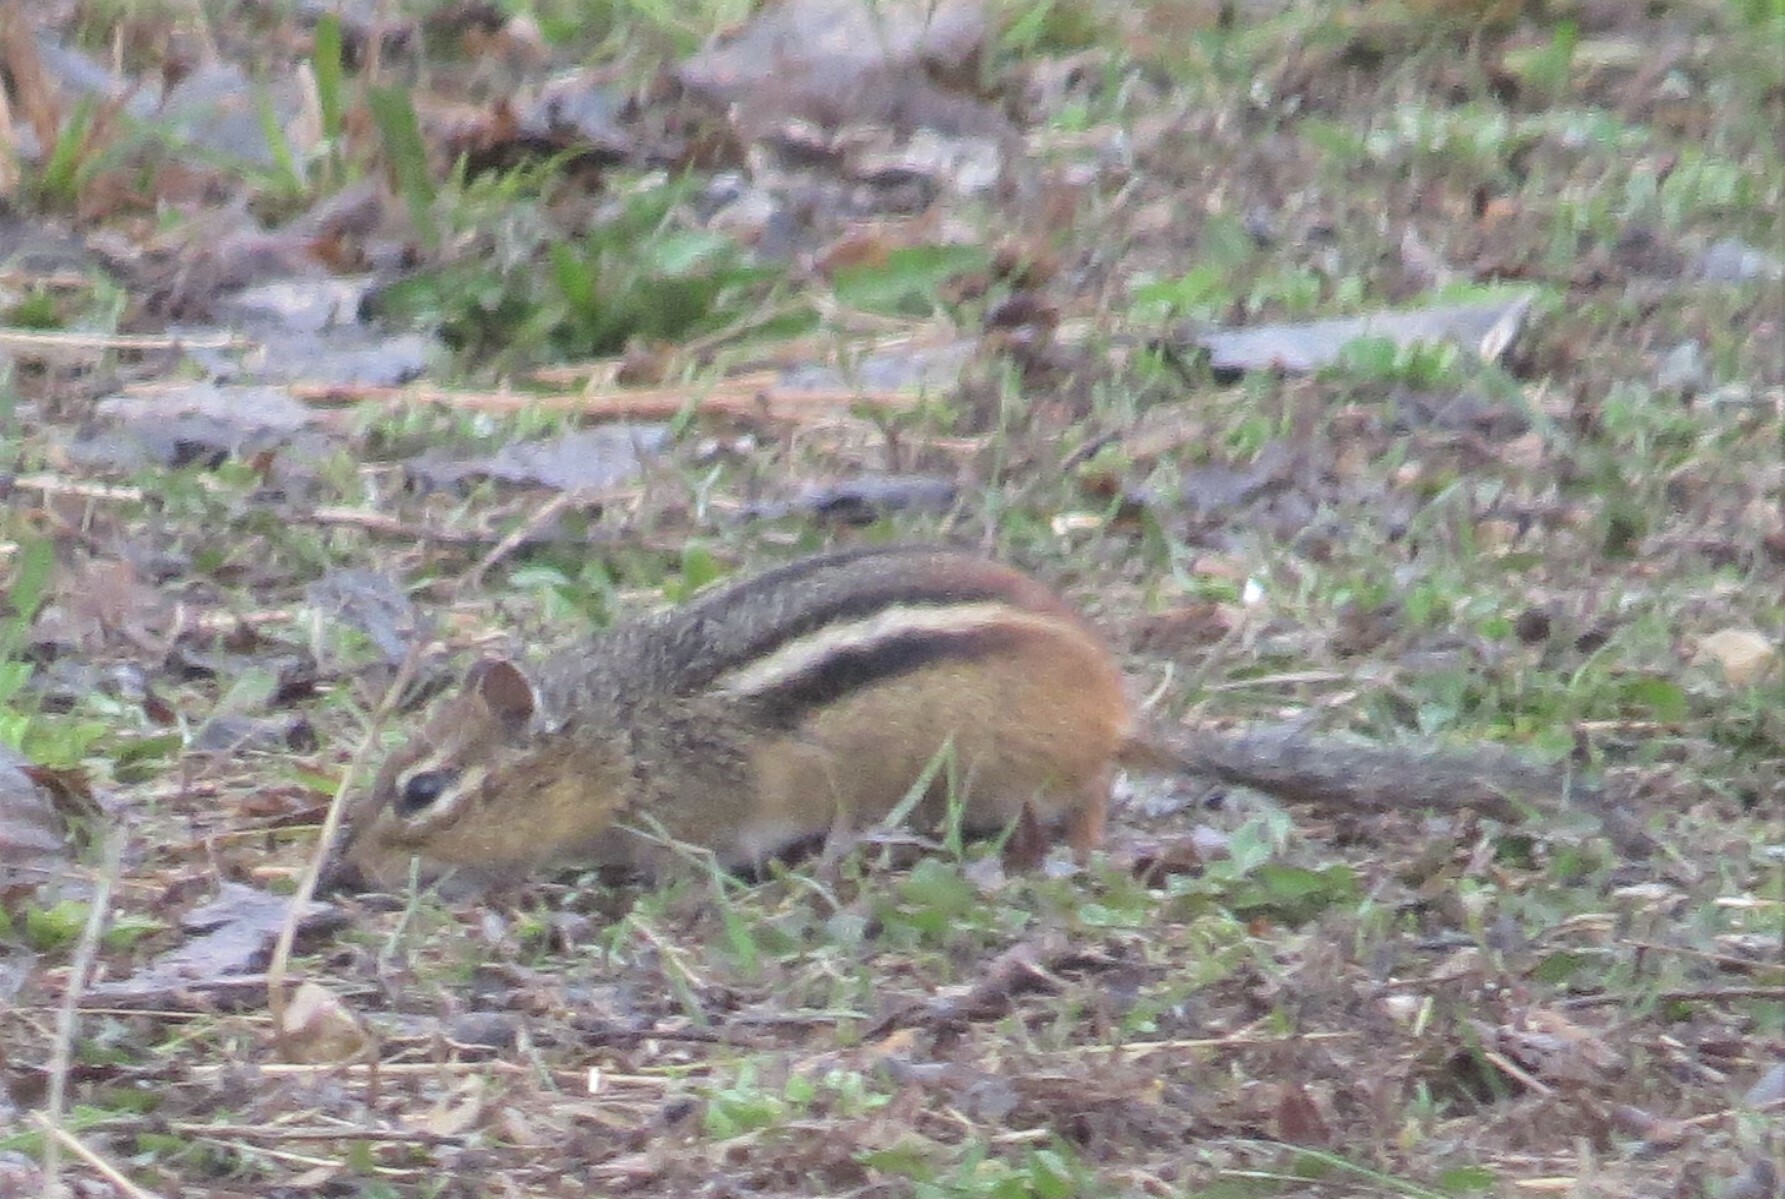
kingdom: Animalia
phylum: Chordata
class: Mammalia
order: Rodentia
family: Sciuridae
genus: Tamias
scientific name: Tamias striatus
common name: Eastern chipmunk
